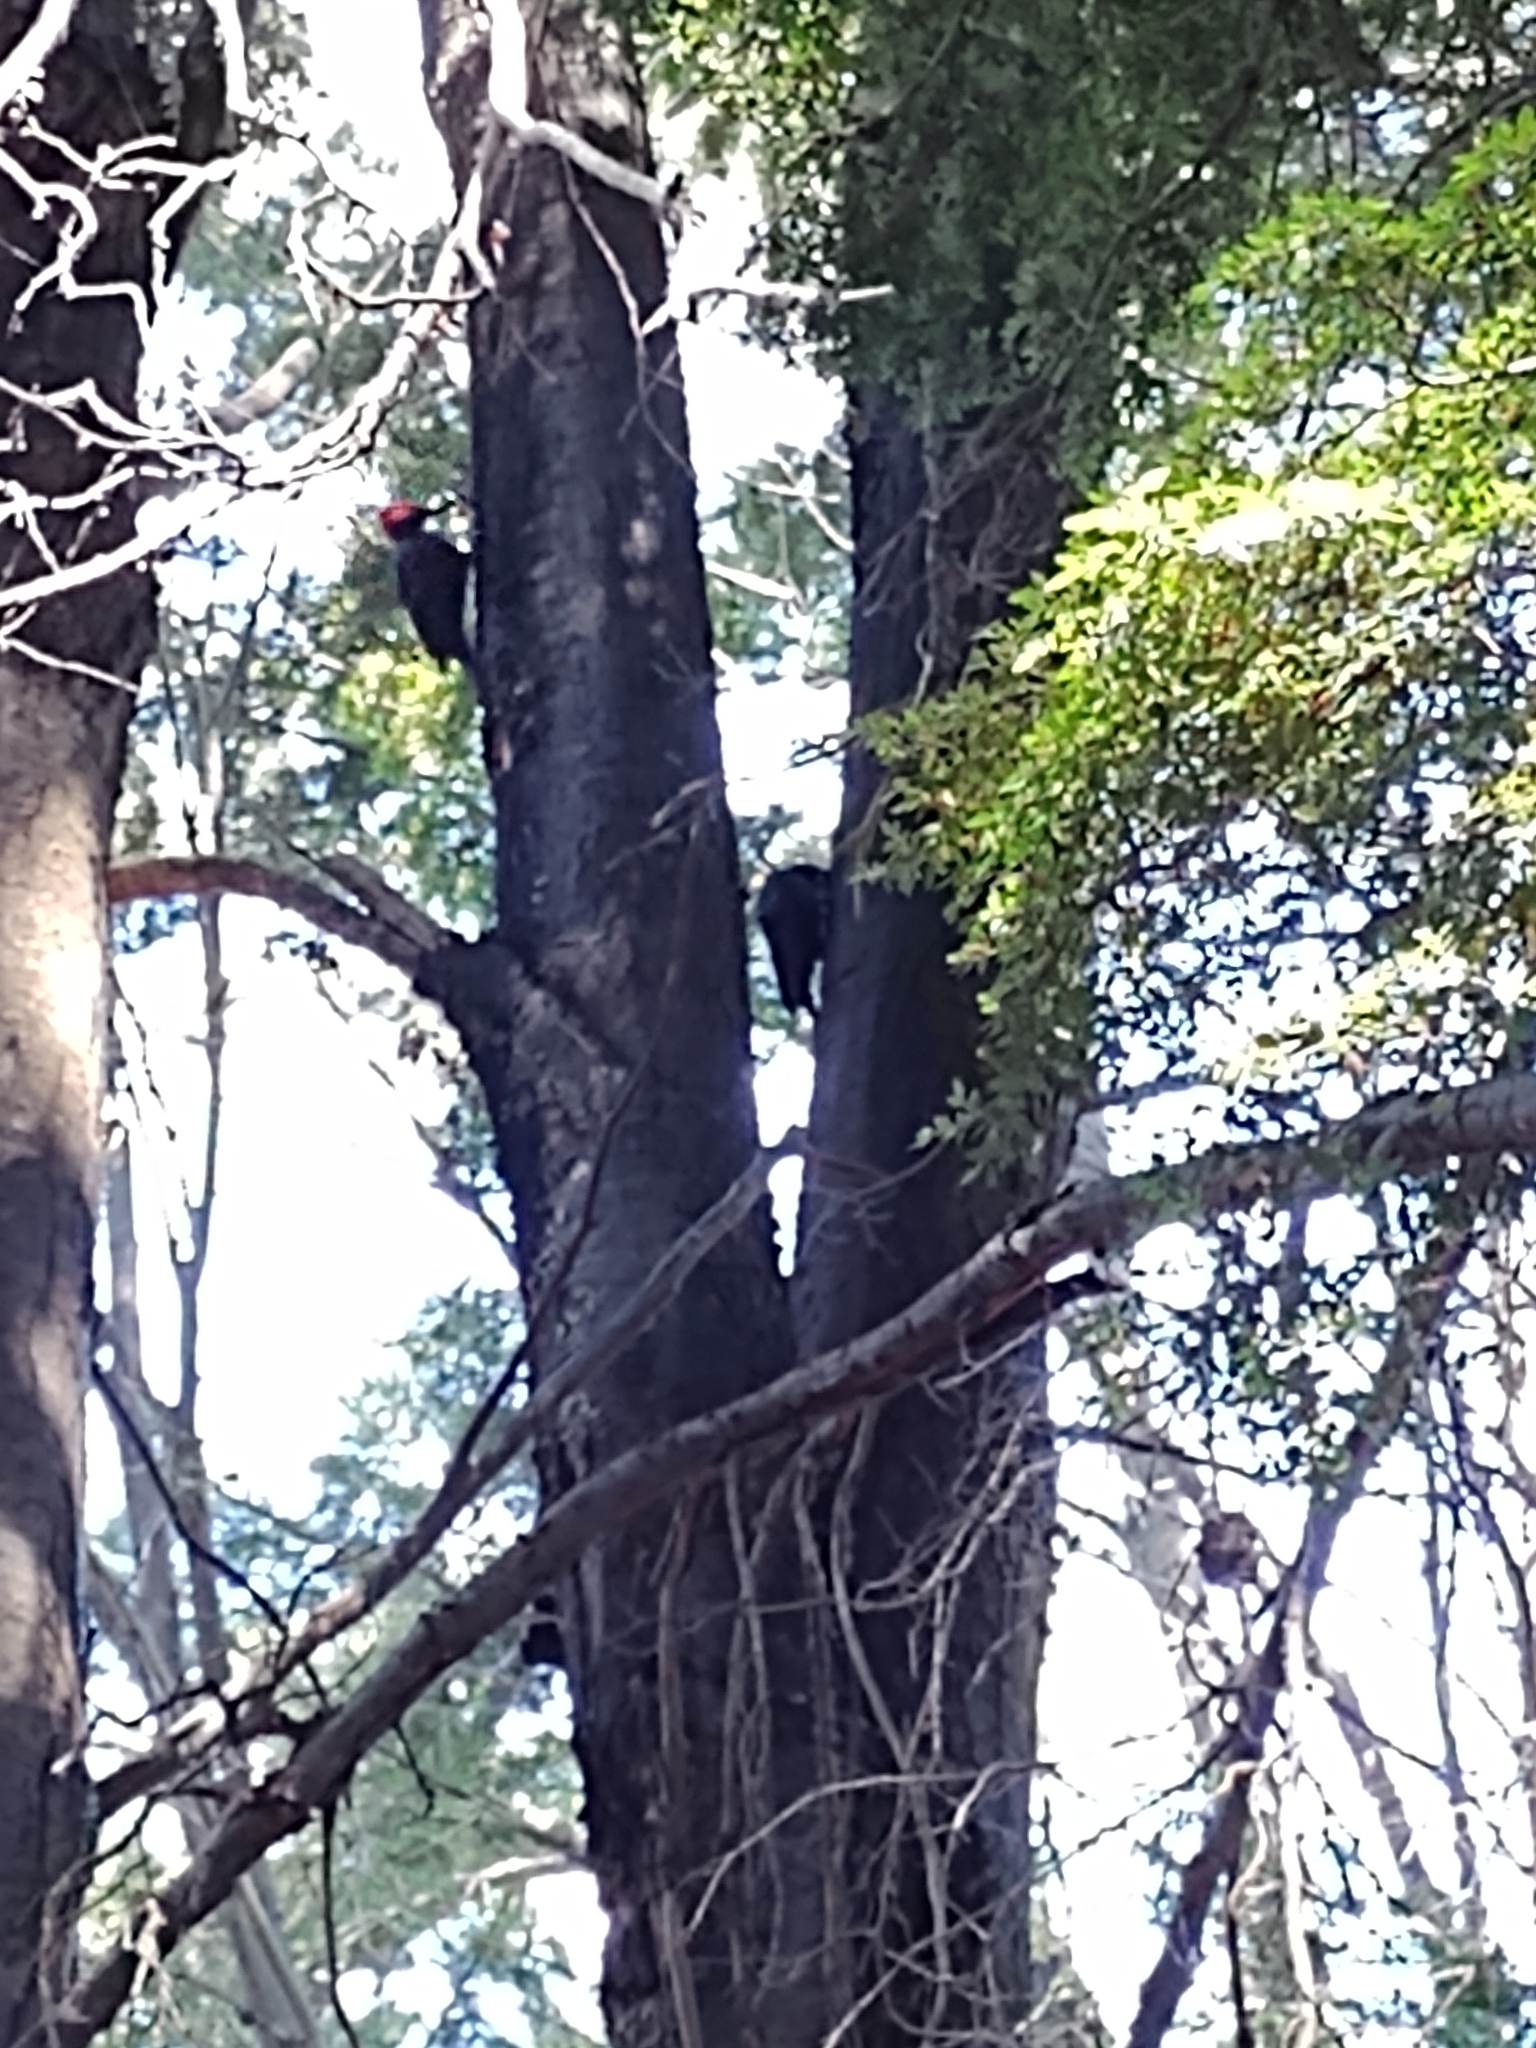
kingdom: Animalia
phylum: Chordata
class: Aves
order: Piciformes
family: Picidae
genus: Campephilus
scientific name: Campephilus magellanicus
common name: Magellanic woodpecker
